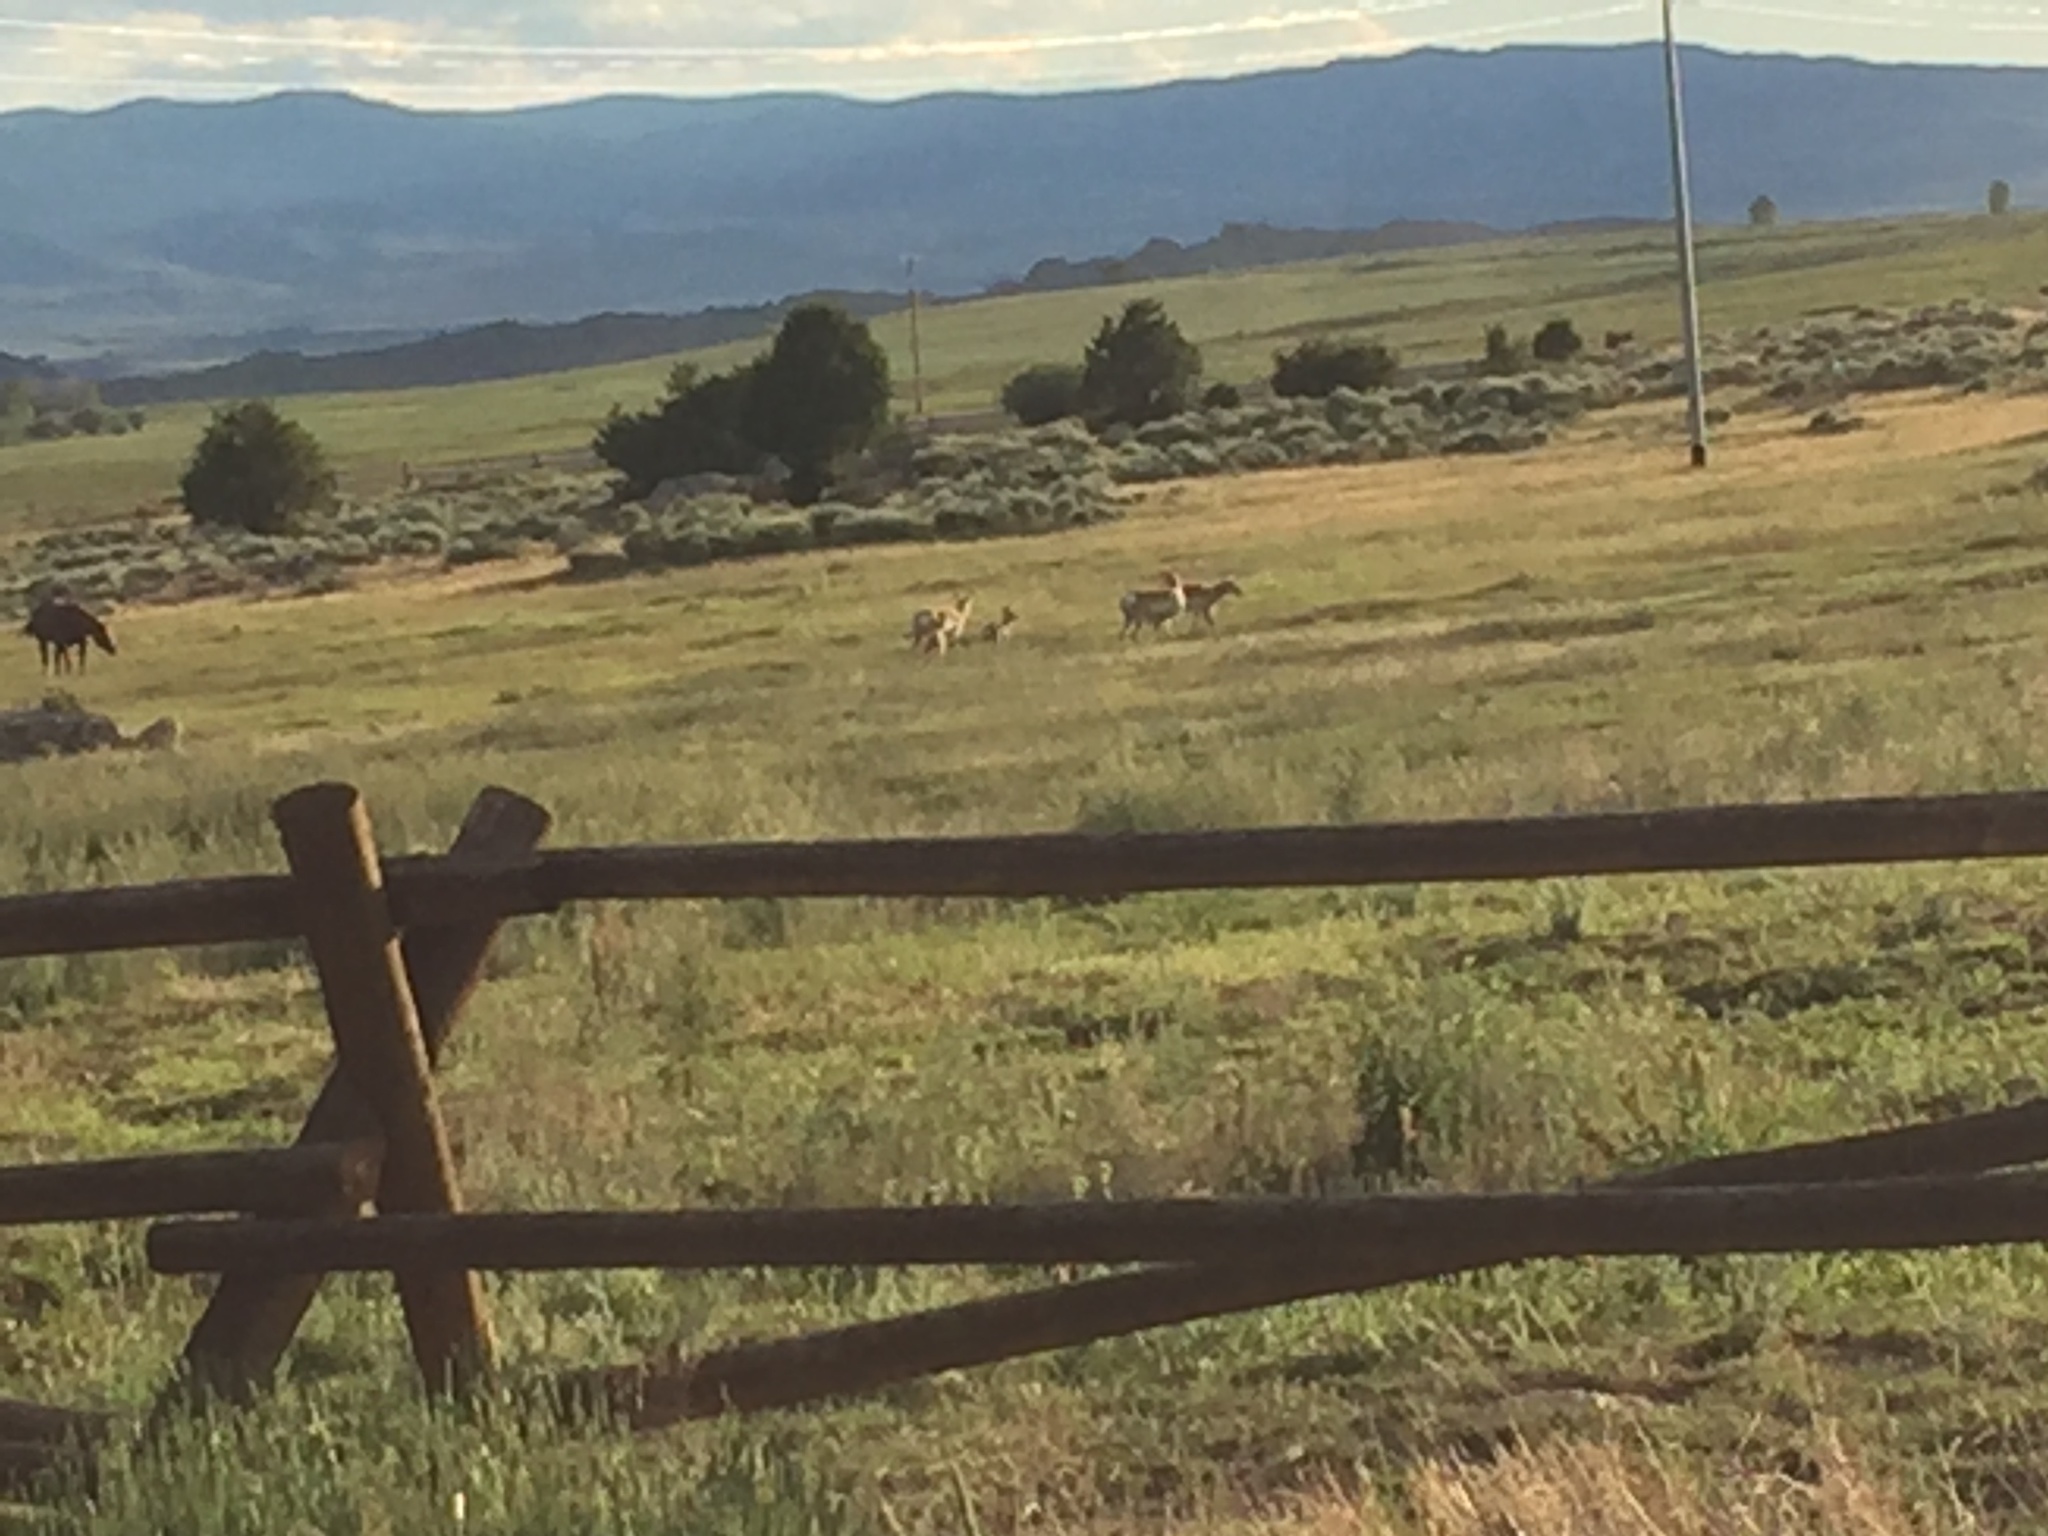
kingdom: Animalia
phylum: Chordata
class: Mammalia
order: Artiodactyla
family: Antilocapridae
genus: Antilocapra
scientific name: Antilocapra americana
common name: Pronghorn
